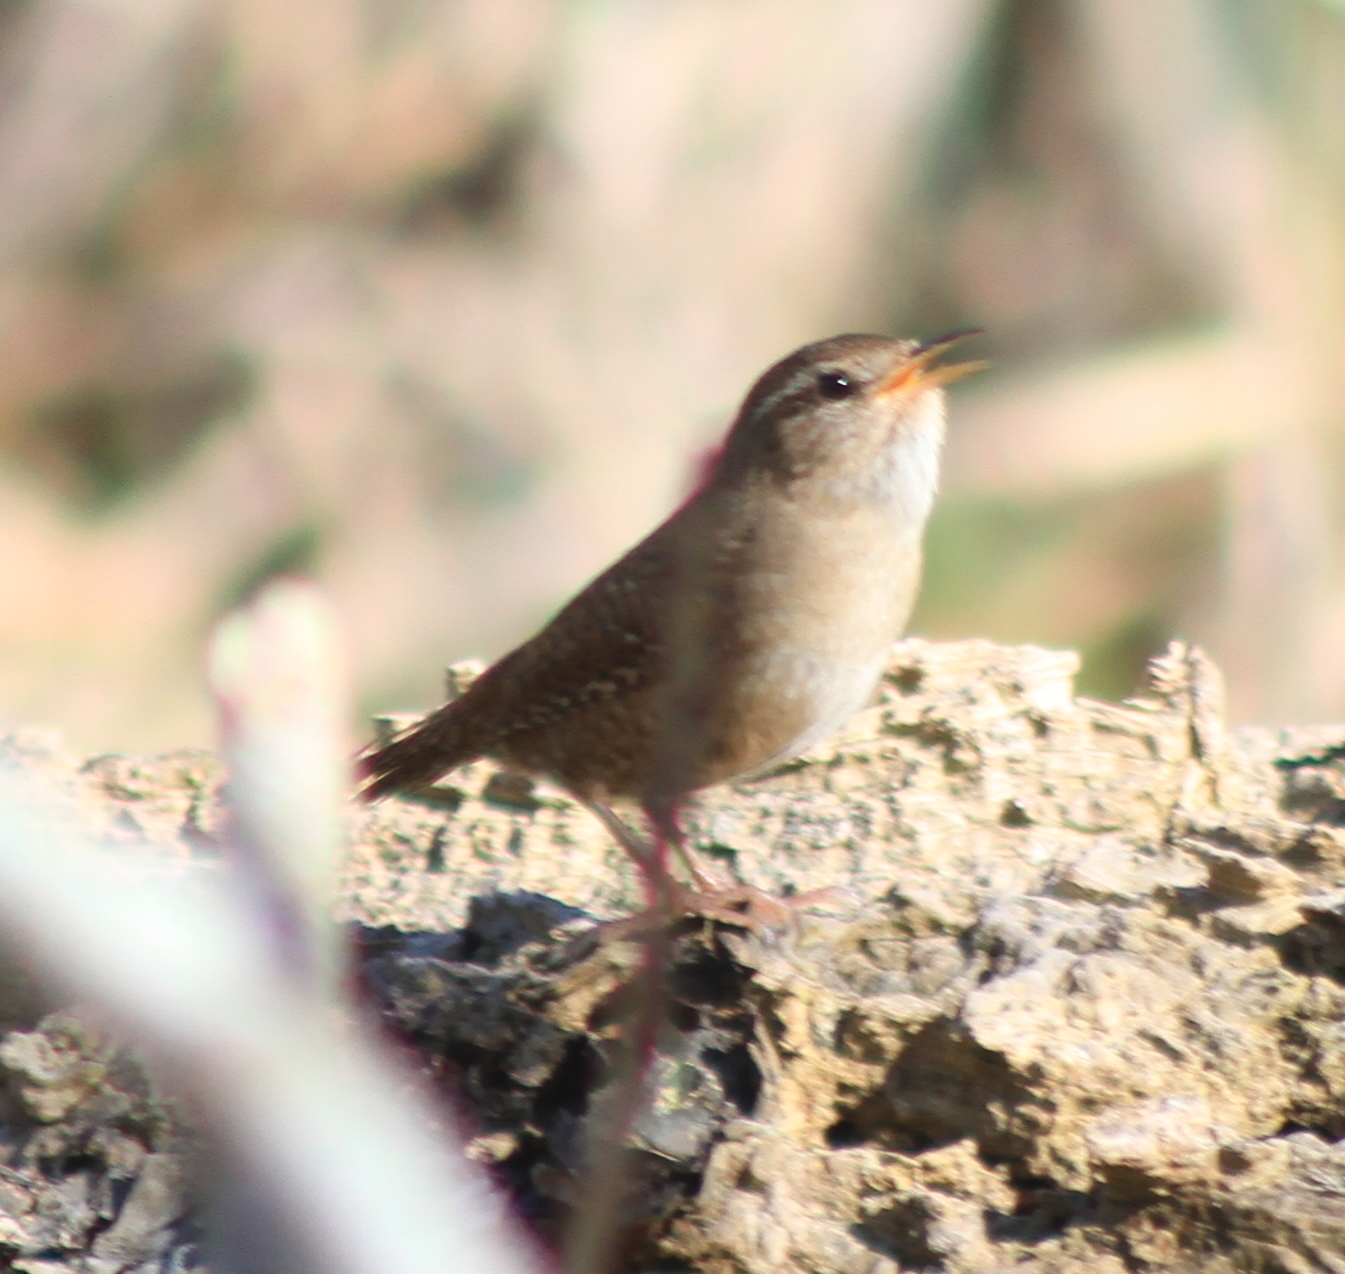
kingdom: Animalia
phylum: Chordata
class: Aves
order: Passeriformes
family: Troglodytidae
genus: Troglodytes
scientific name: Troglodytes troglodytes
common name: Eurasian wren
